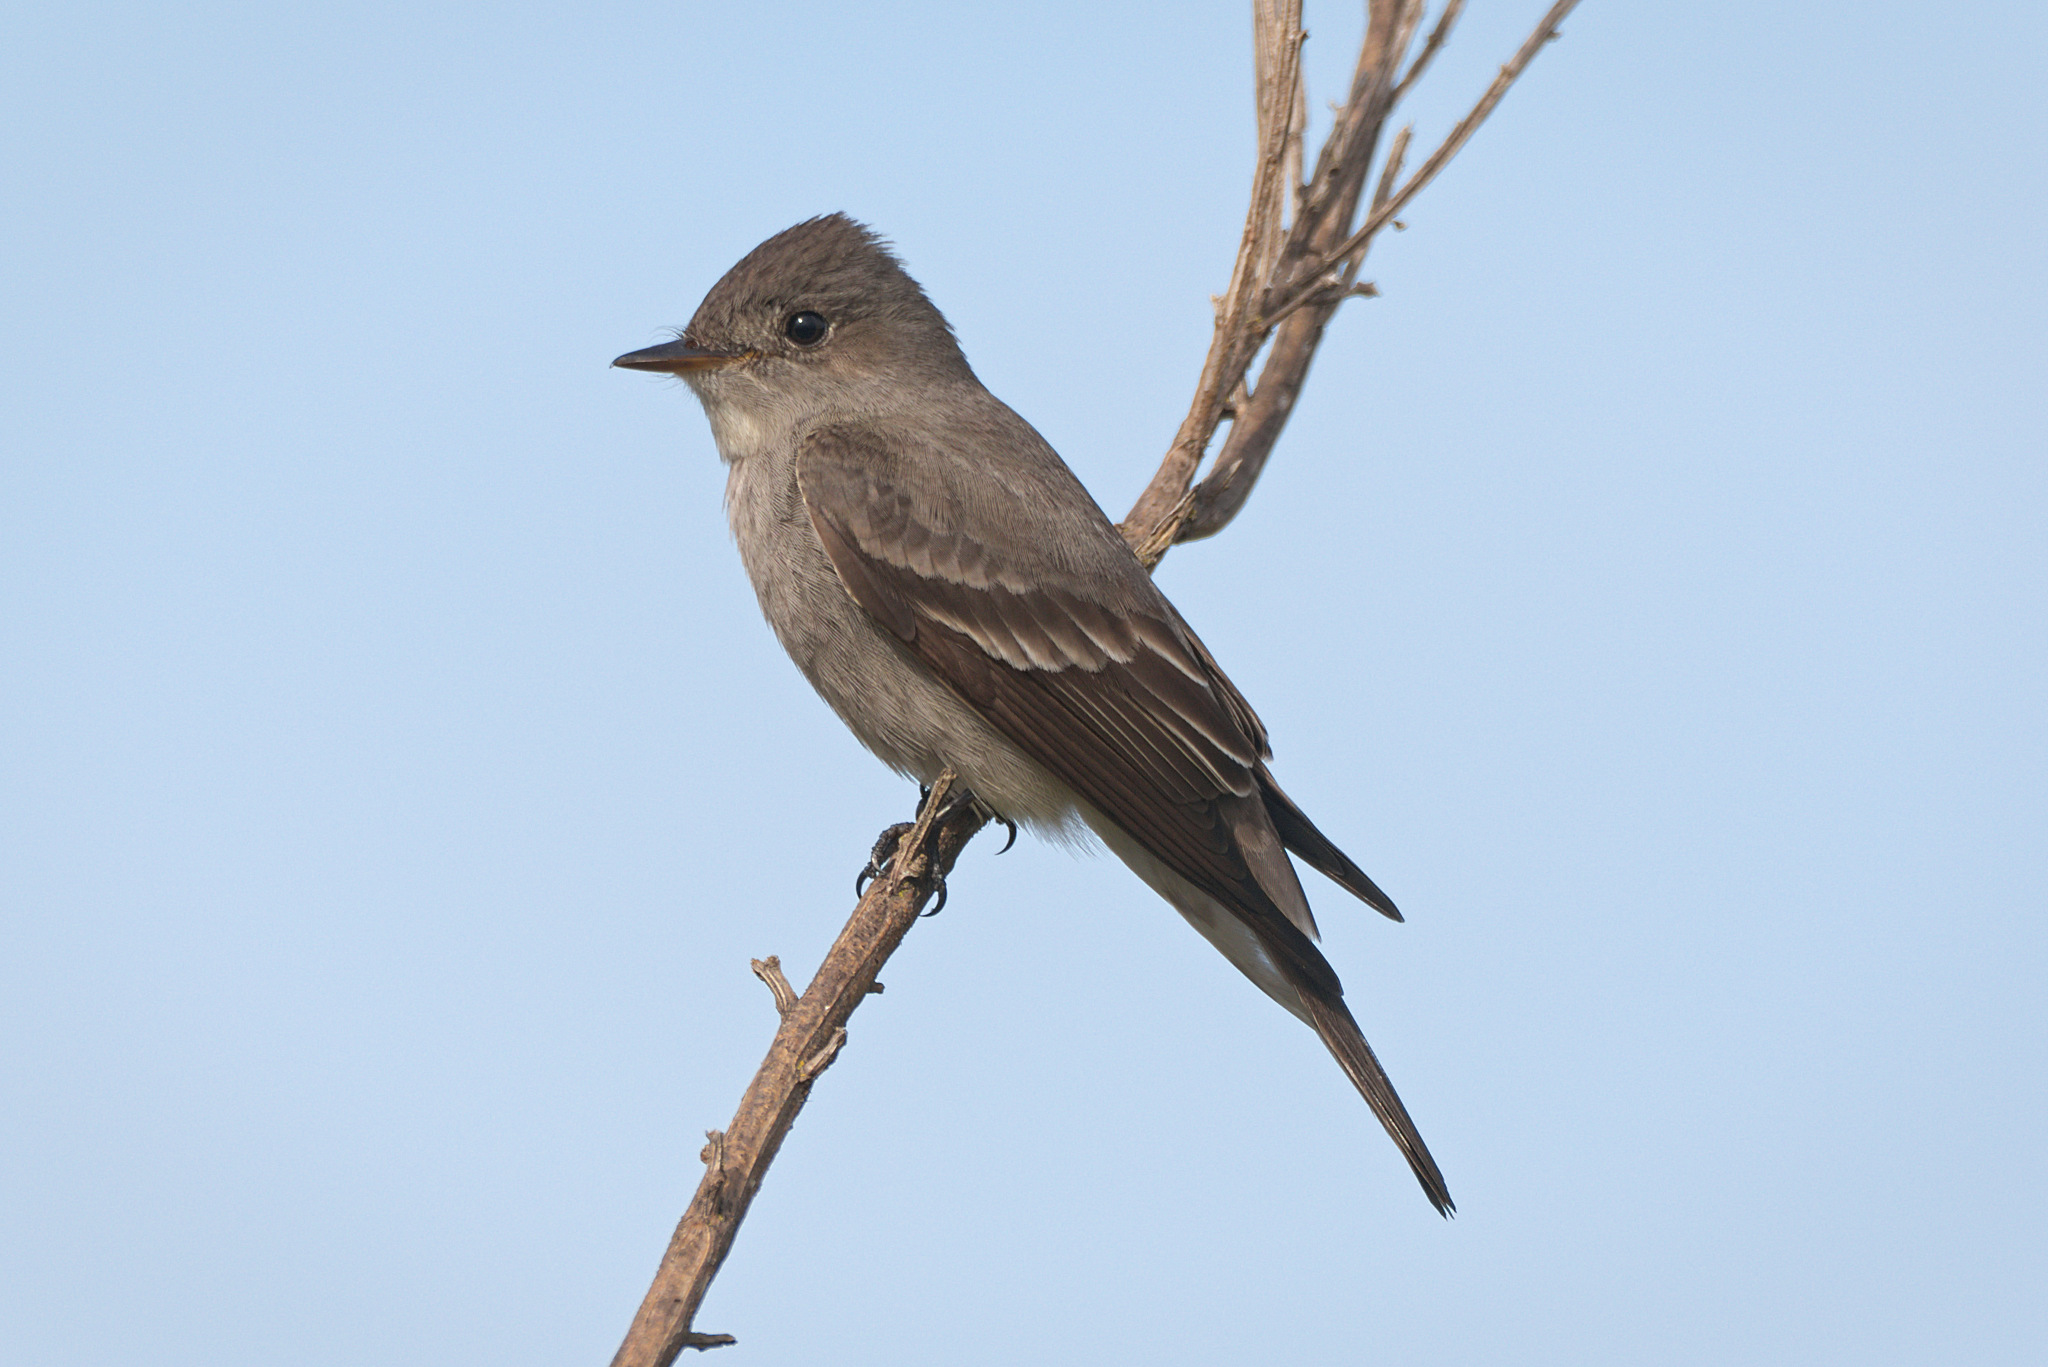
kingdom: Animalia
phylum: Chordata
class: Aves
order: Passeriformes
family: Tyrannidae
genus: Contopus
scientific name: Contopus sordidulus
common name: Western wood-pewee
